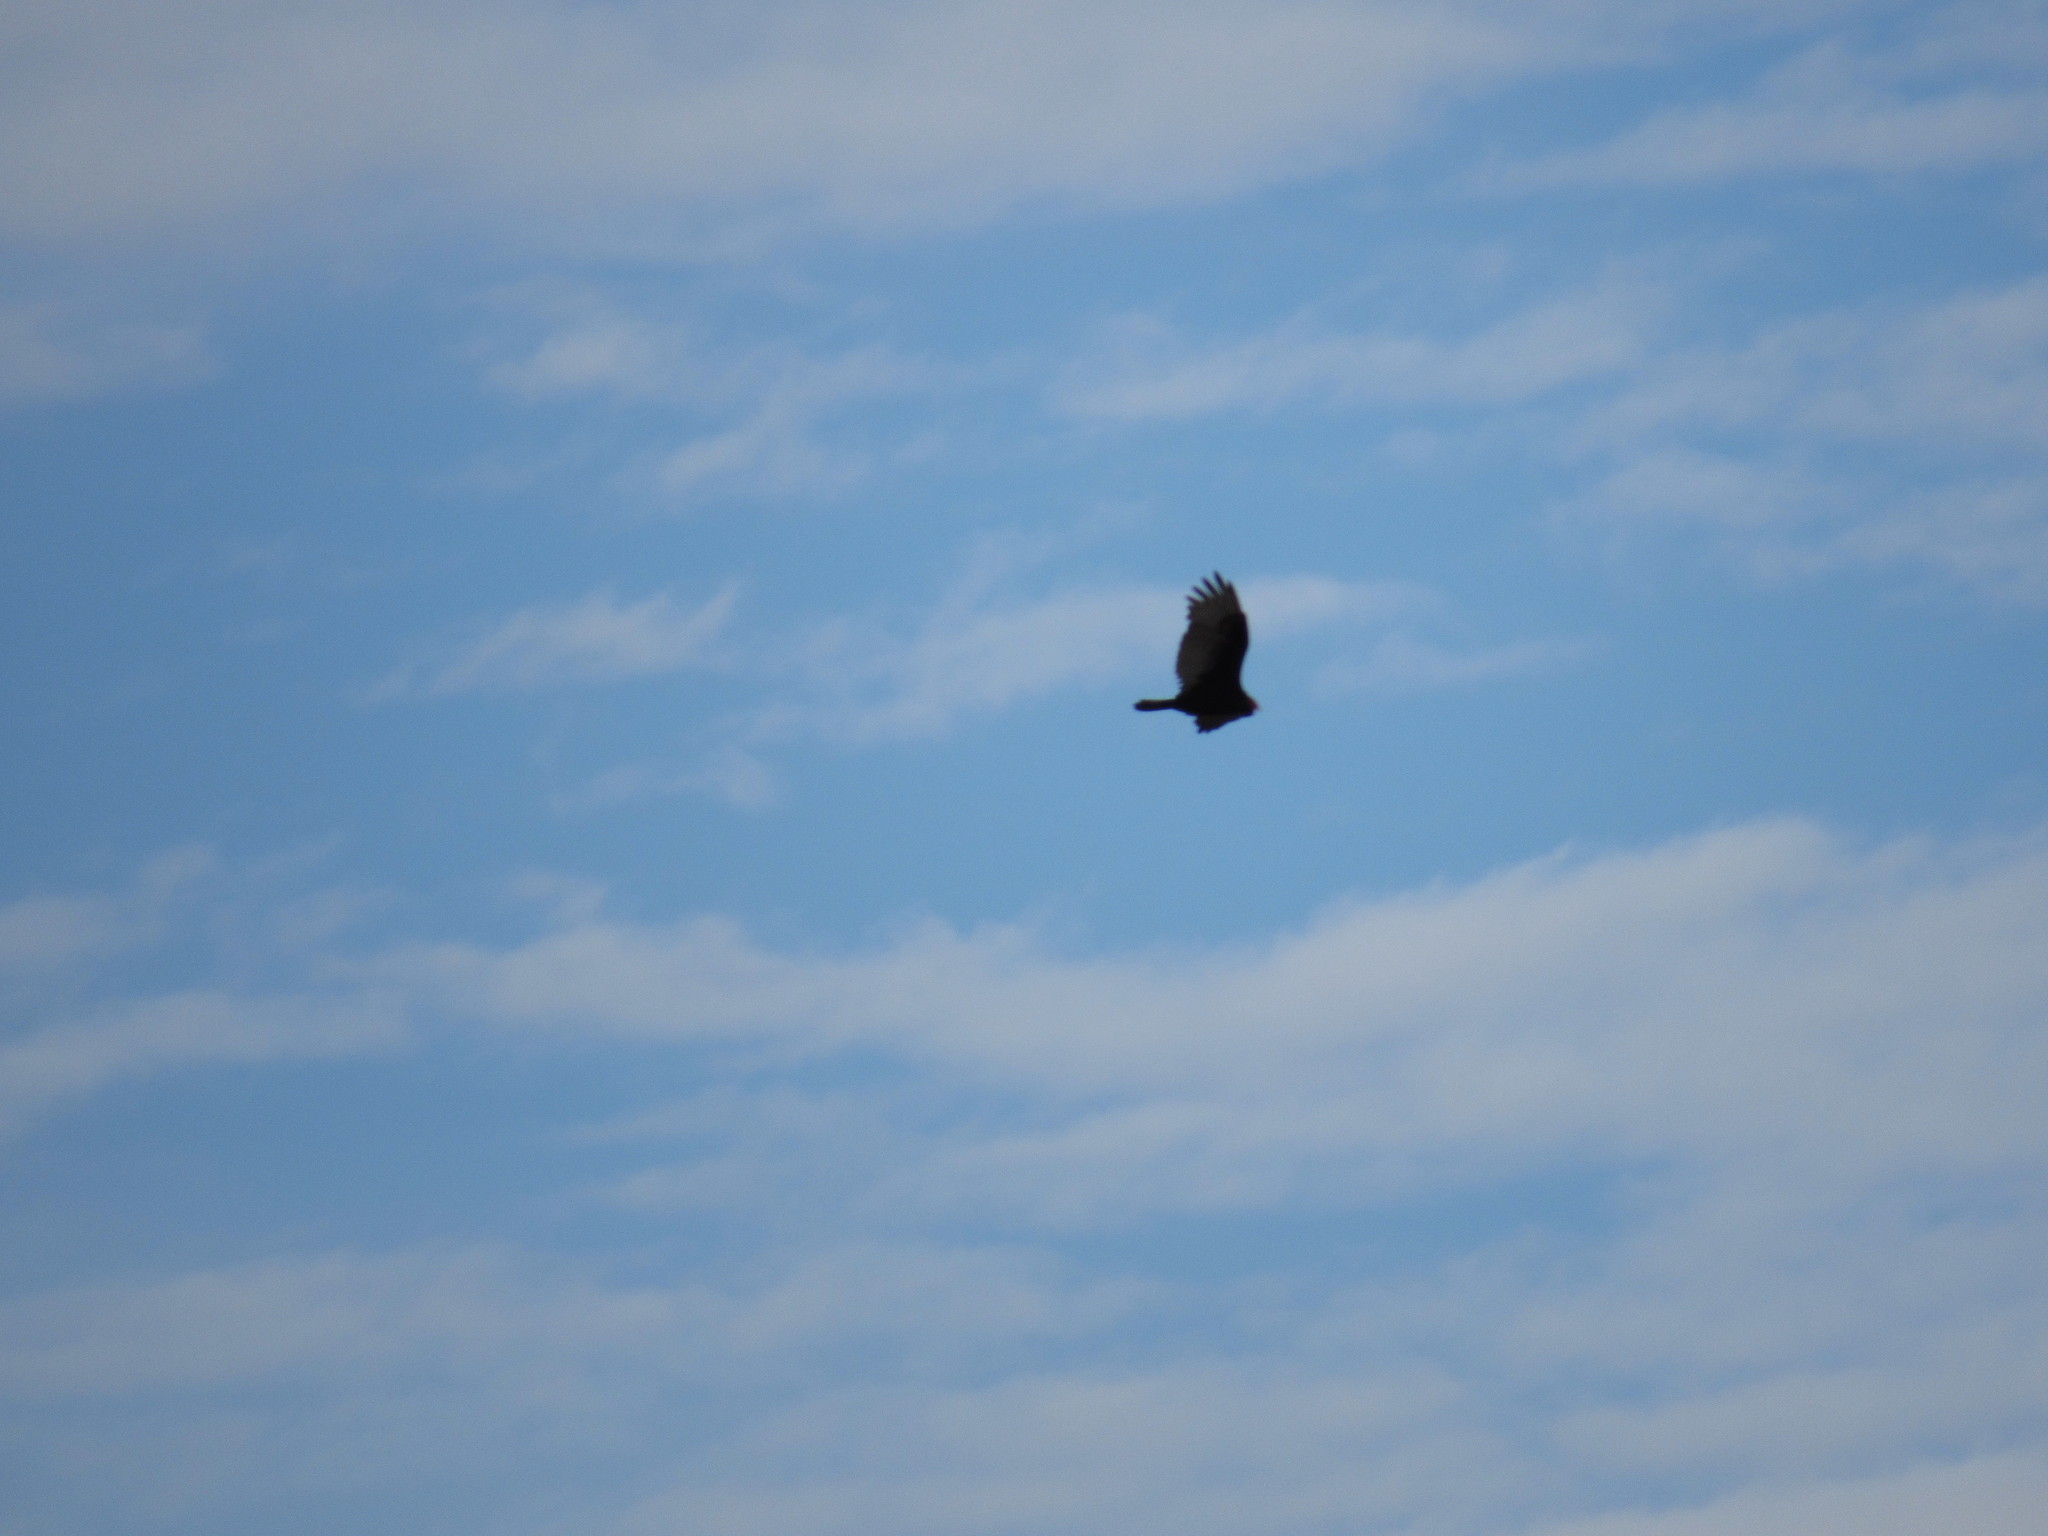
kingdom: Animalia
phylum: Chordata
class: Aves
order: Accipitriformes
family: Cathartidae
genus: Cathartes
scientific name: Cathartes aura
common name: Turkey vulture
